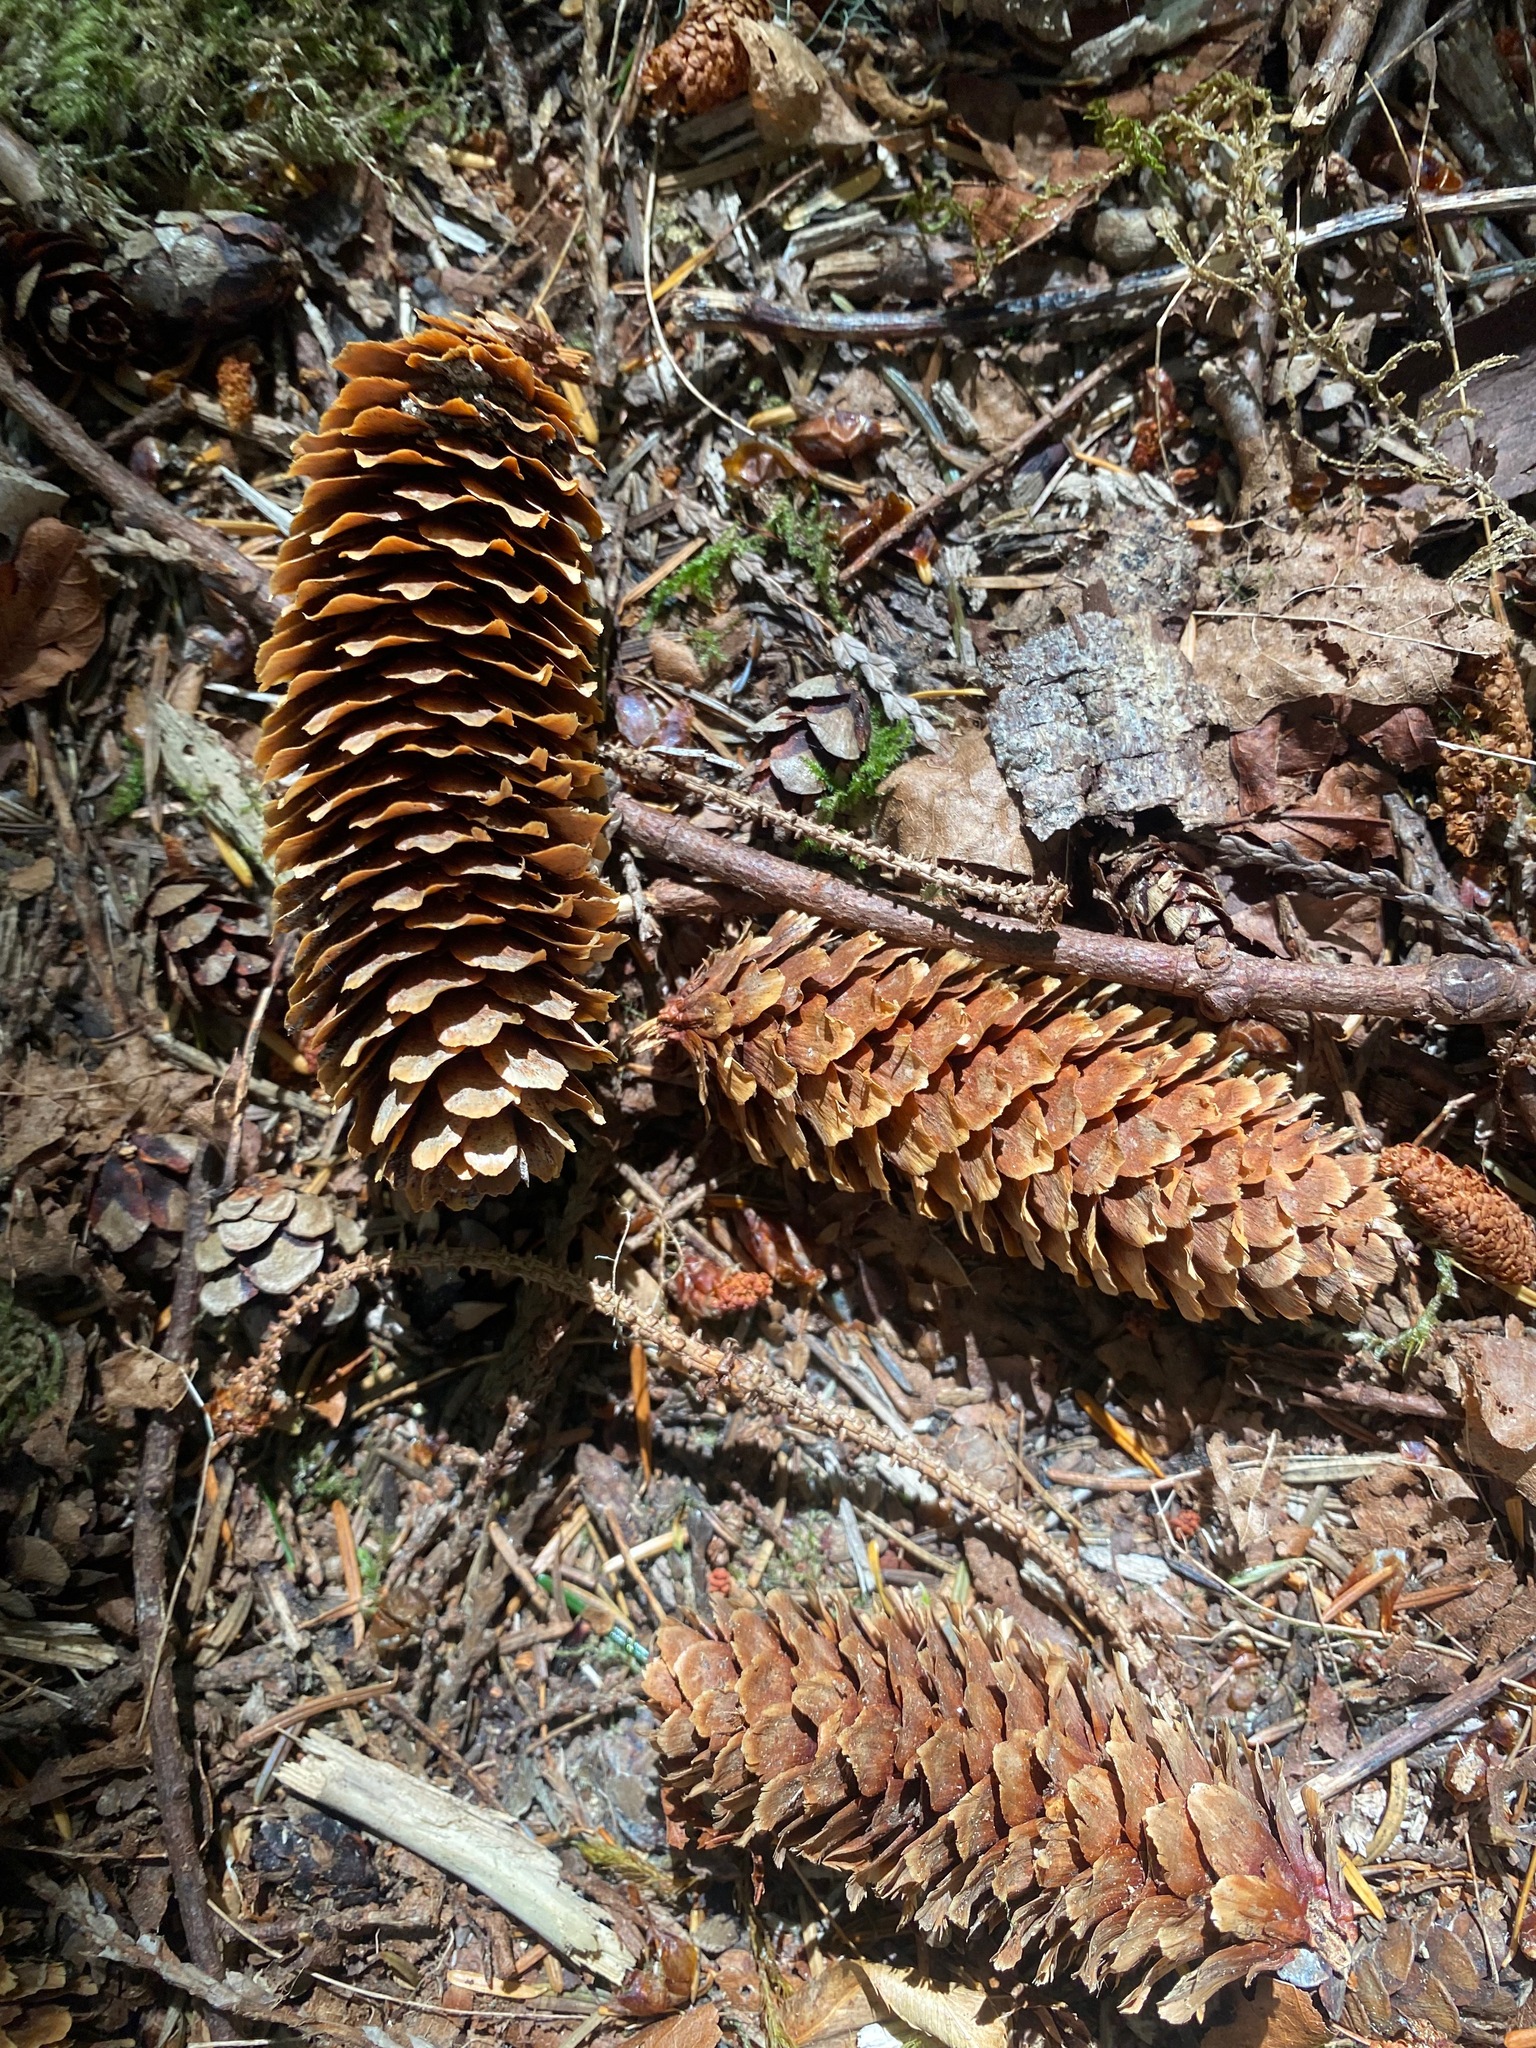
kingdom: Plantae
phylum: Tracheophyta
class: Pinopsida
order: Pinales
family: Pinaceae
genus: Picea
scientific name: Picea sitchensis
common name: Sitka spruce
